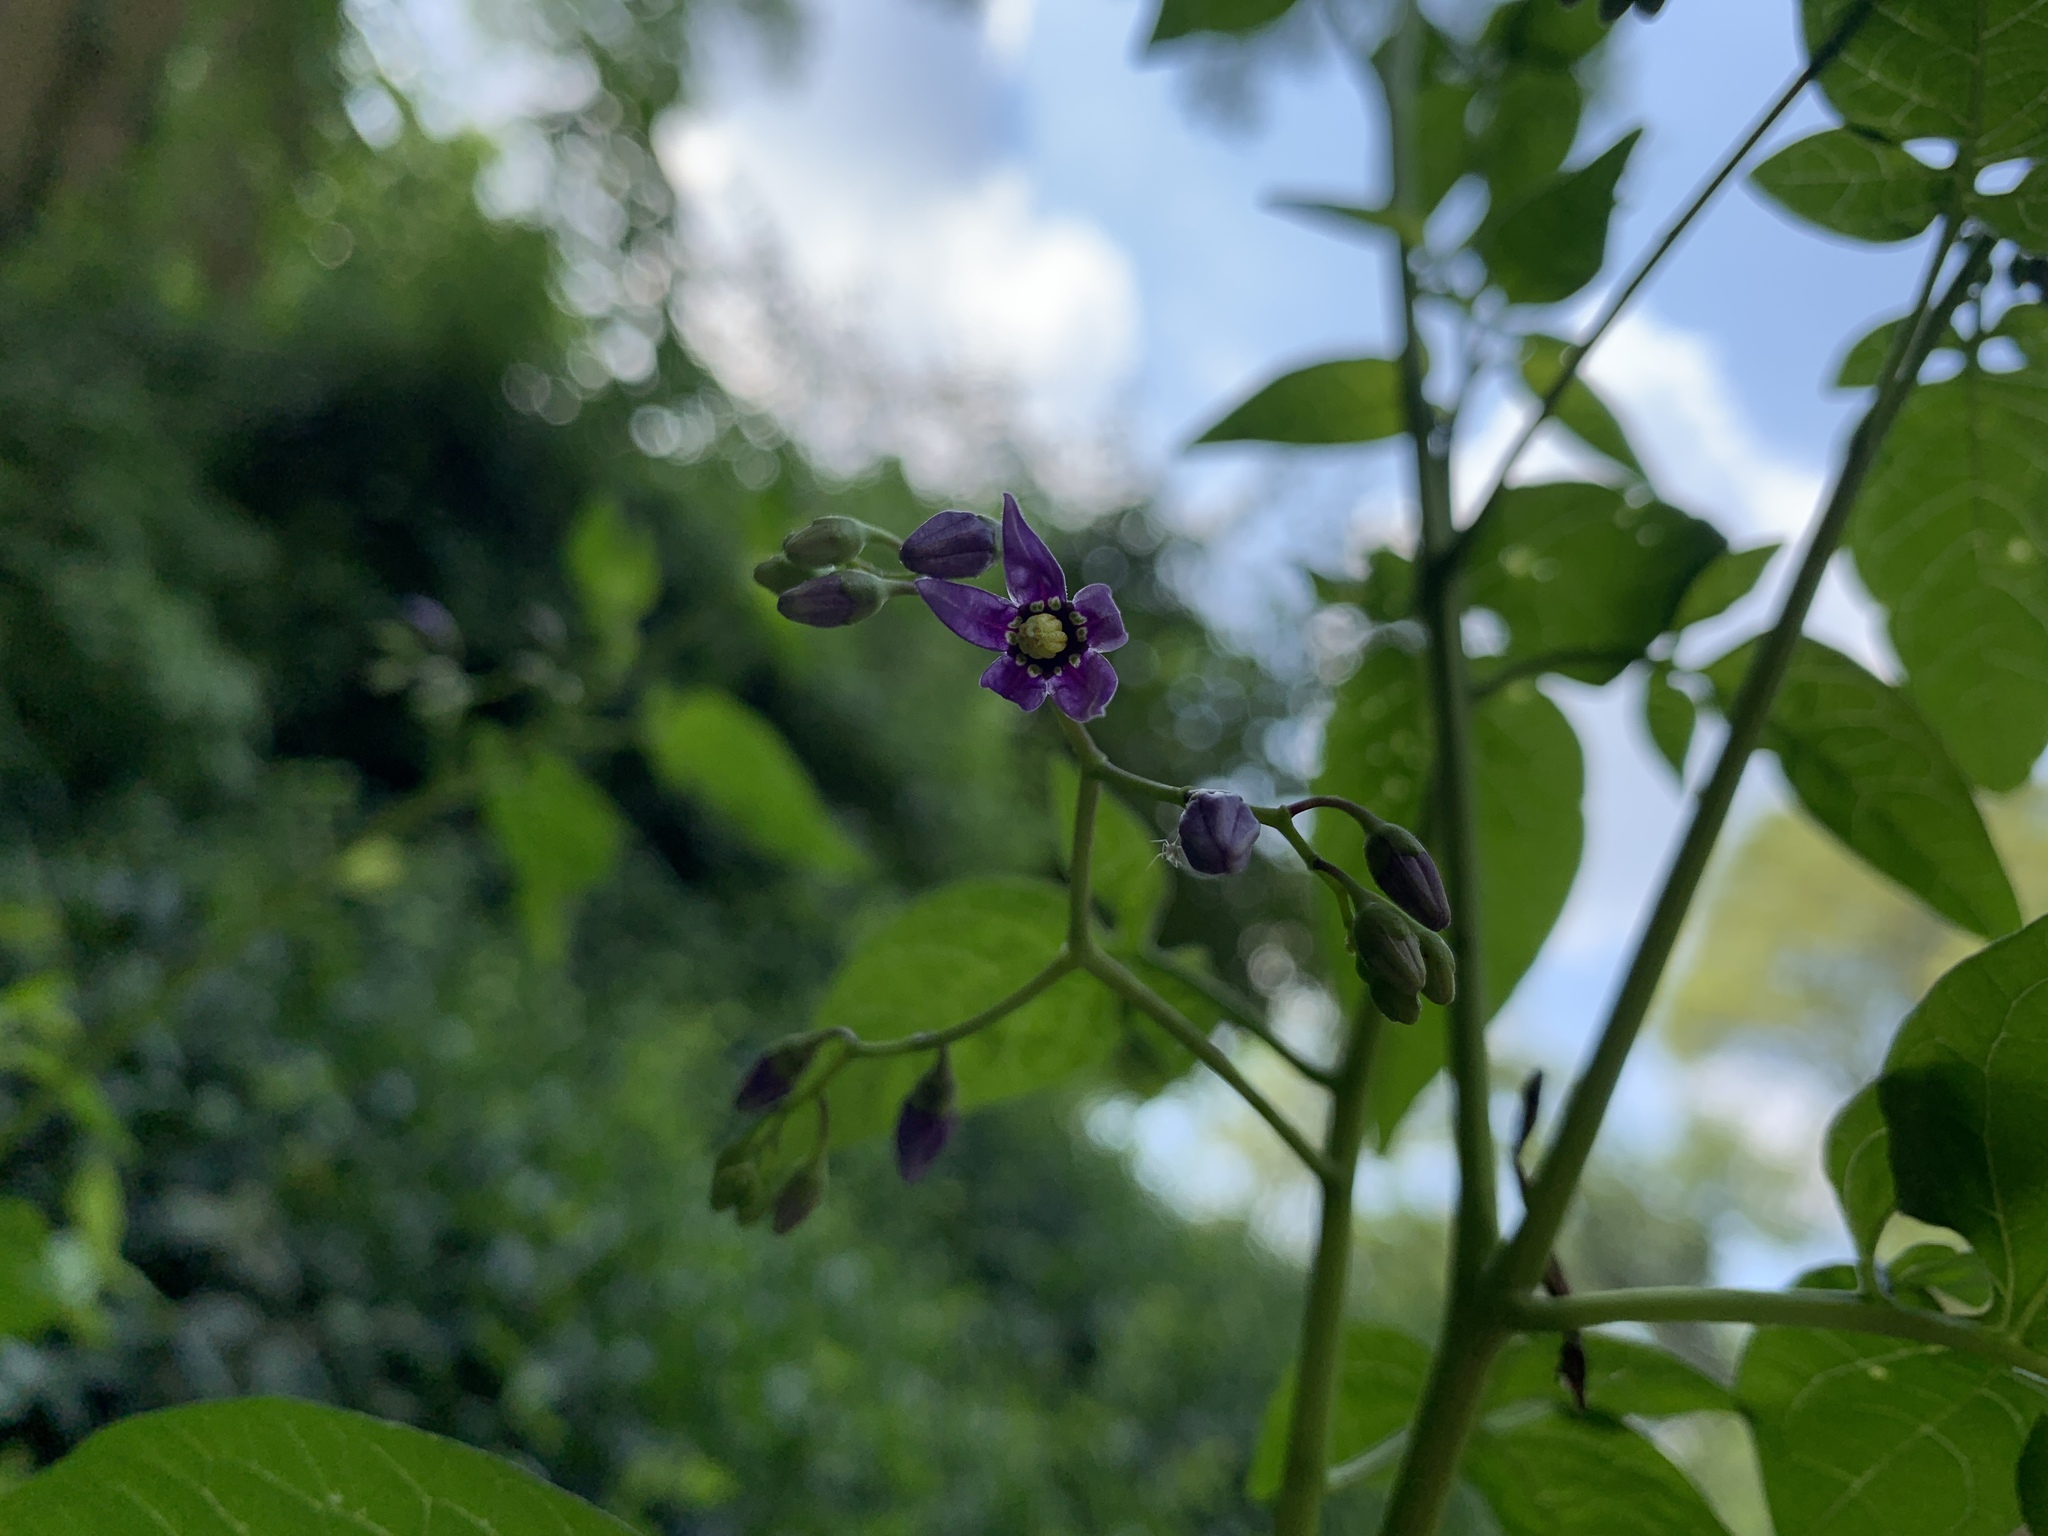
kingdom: Plantae
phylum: Tracheophyta
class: Magnoliopsida
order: Solanales
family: Solanaceae
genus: Solanum
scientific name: Solanum dulcamara
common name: Climbing nightshade
